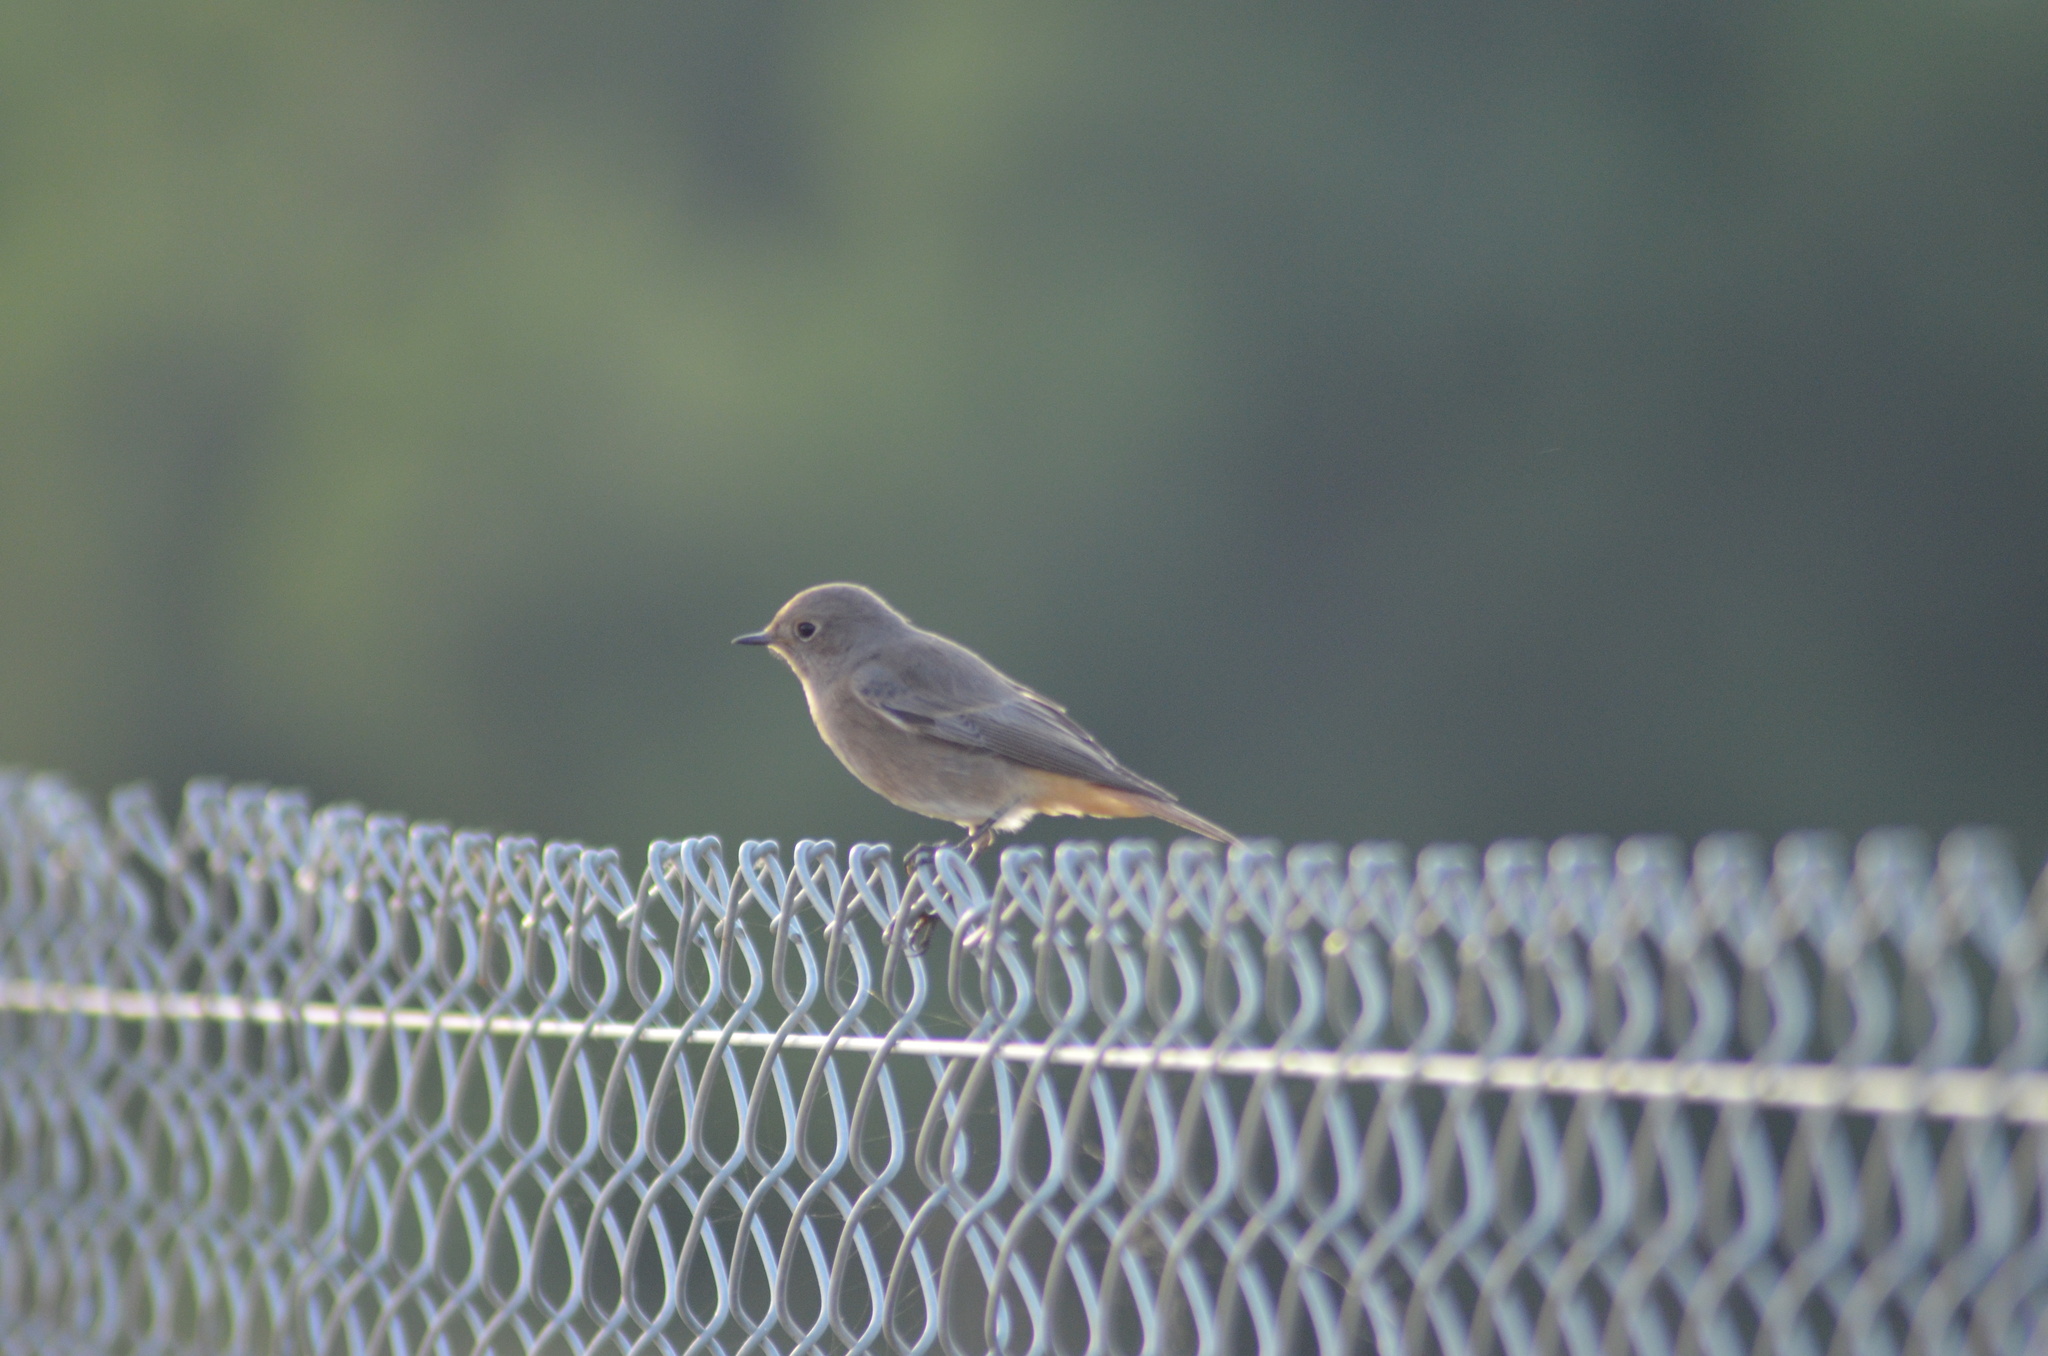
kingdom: Animalia
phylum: Chordata
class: Aves
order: Passeriformes
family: Muscicapidae
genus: Phoenicurus
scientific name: Phoenicurus ochruros
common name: Black redstart
